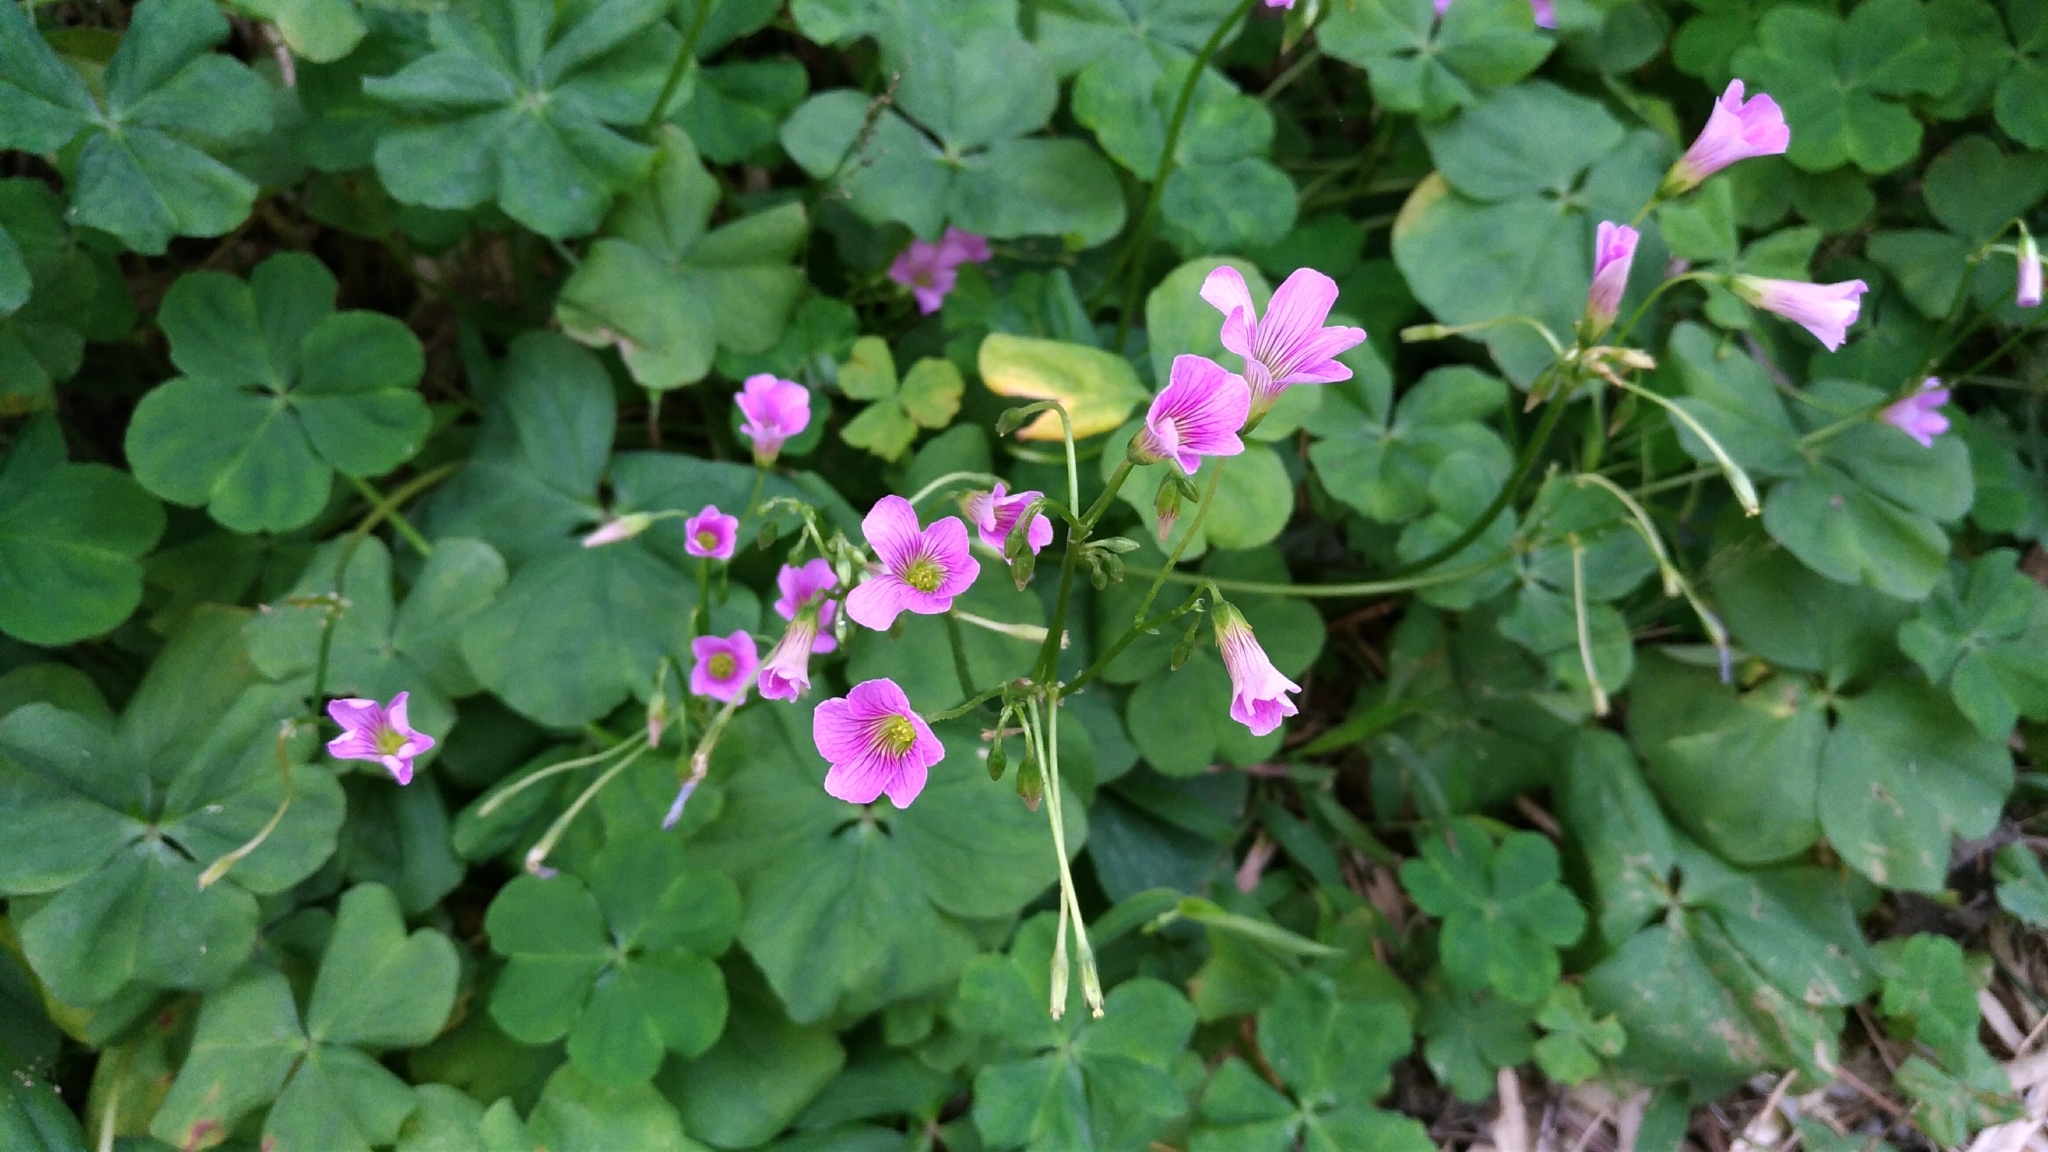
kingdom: Plantae
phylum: Tracheophyta
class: Magnoliopsida
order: Oxalidales
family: Oxalidaceae
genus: Oxalis
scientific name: Oxalis debilis
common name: Large-flowered pink-sorrel
